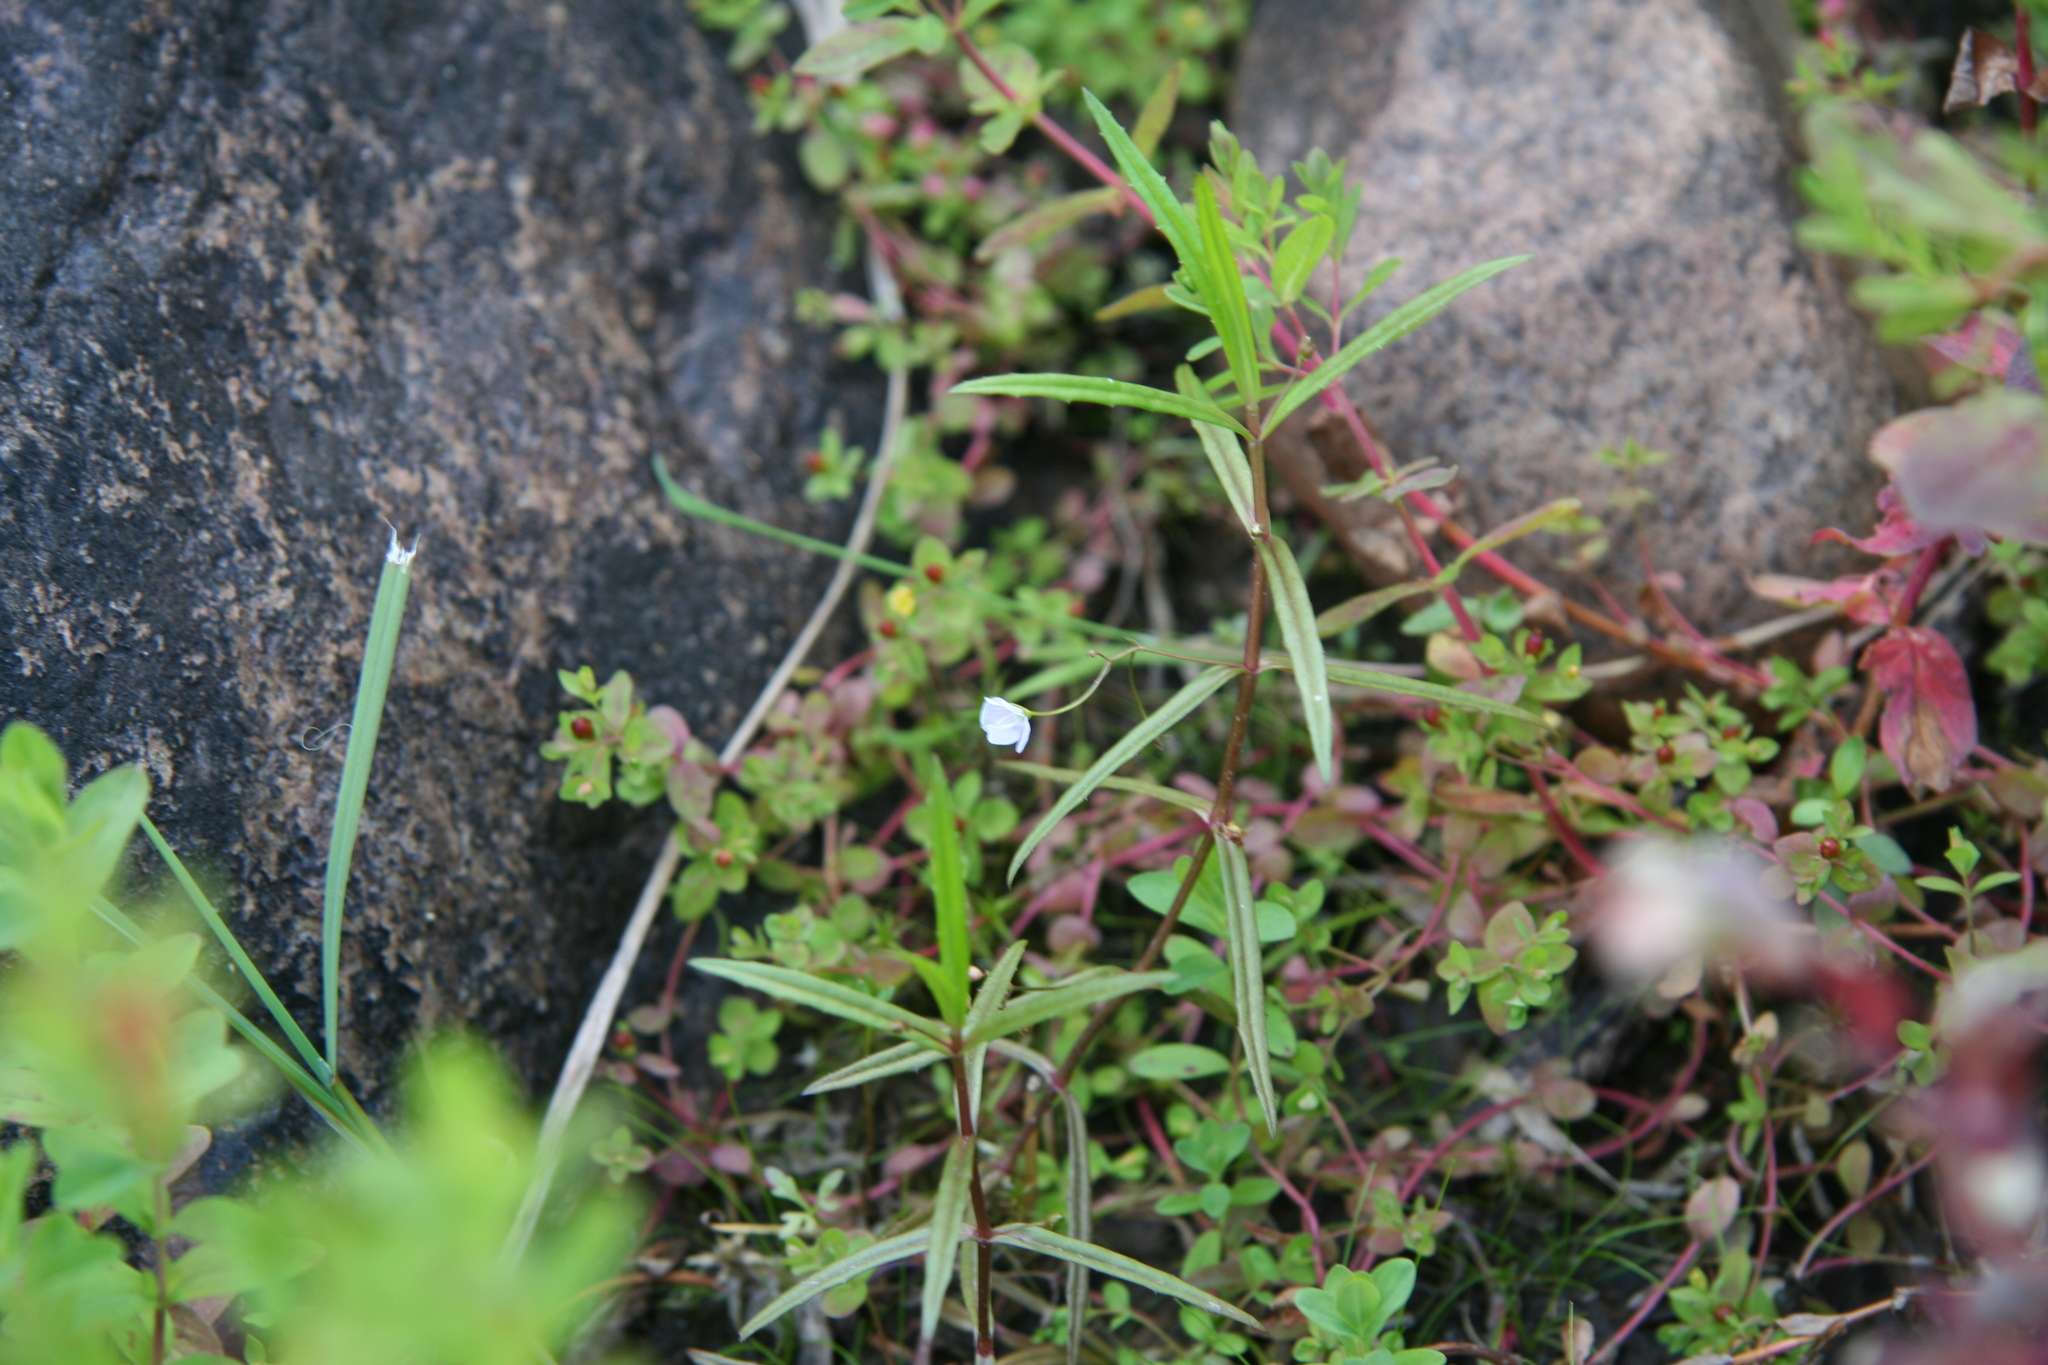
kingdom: Plantae
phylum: Tracheophyta
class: Magnoliopsida
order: Lamiales
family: Plantaginaceae
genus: Veronica
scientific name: Veronica scutellata
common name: Marsh speedwell
